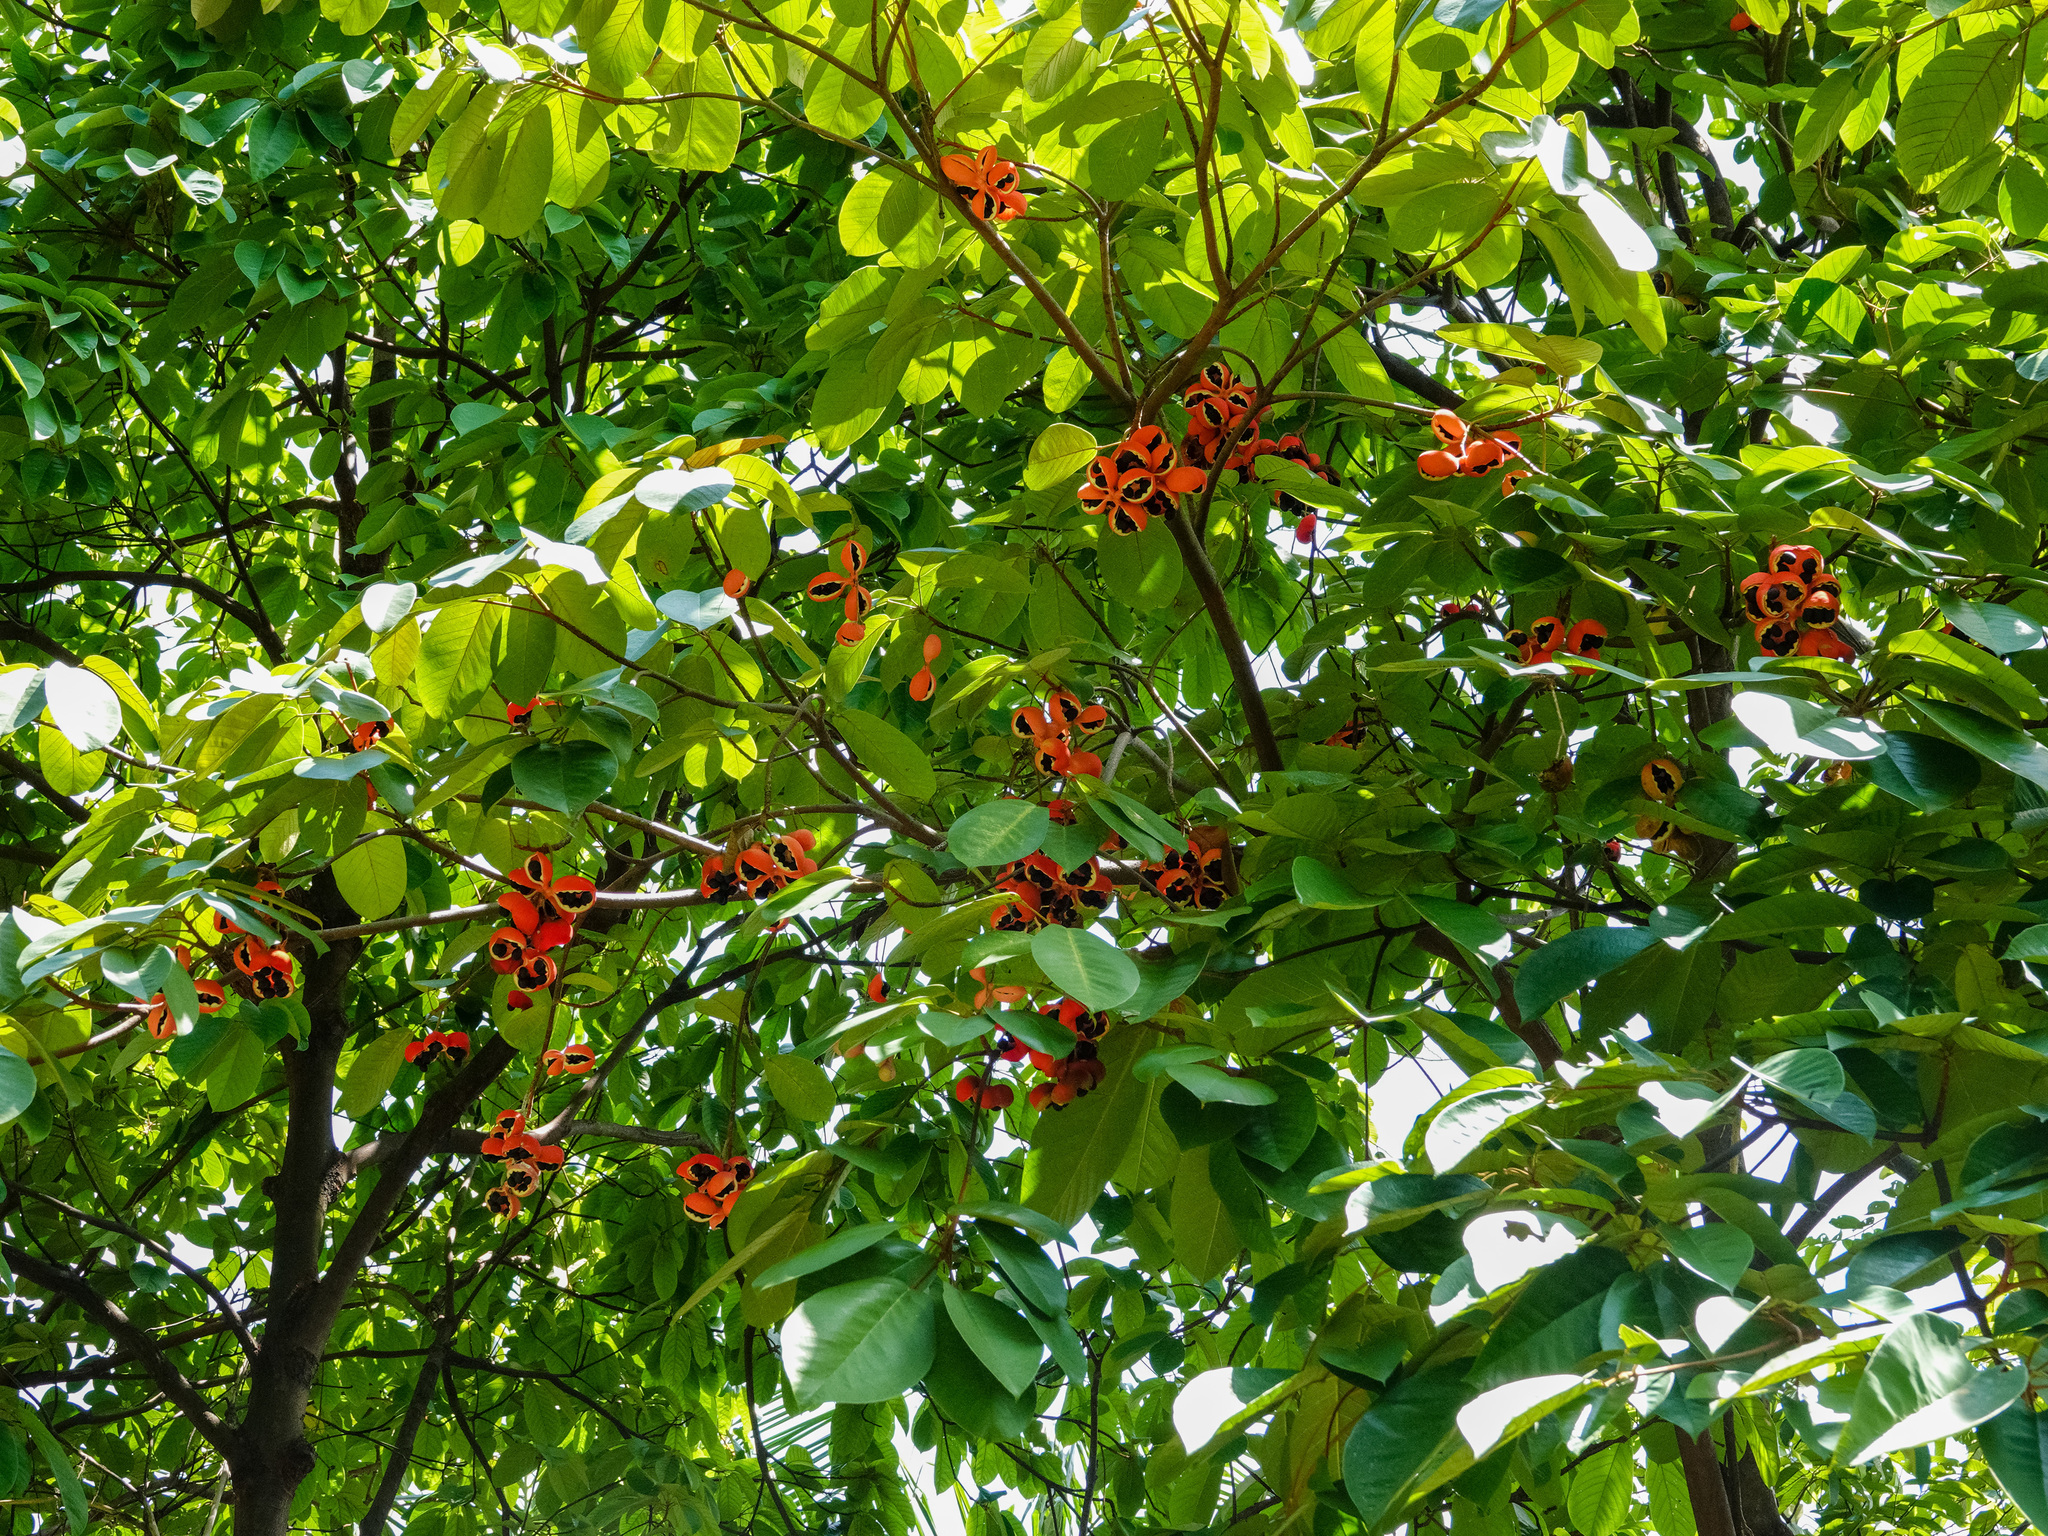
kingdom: Plantae
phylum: Tracheophyta
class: Magnoliopsida
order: Malvales
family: Malvaceae
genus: Sterculia
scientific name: Sterculia cordata
